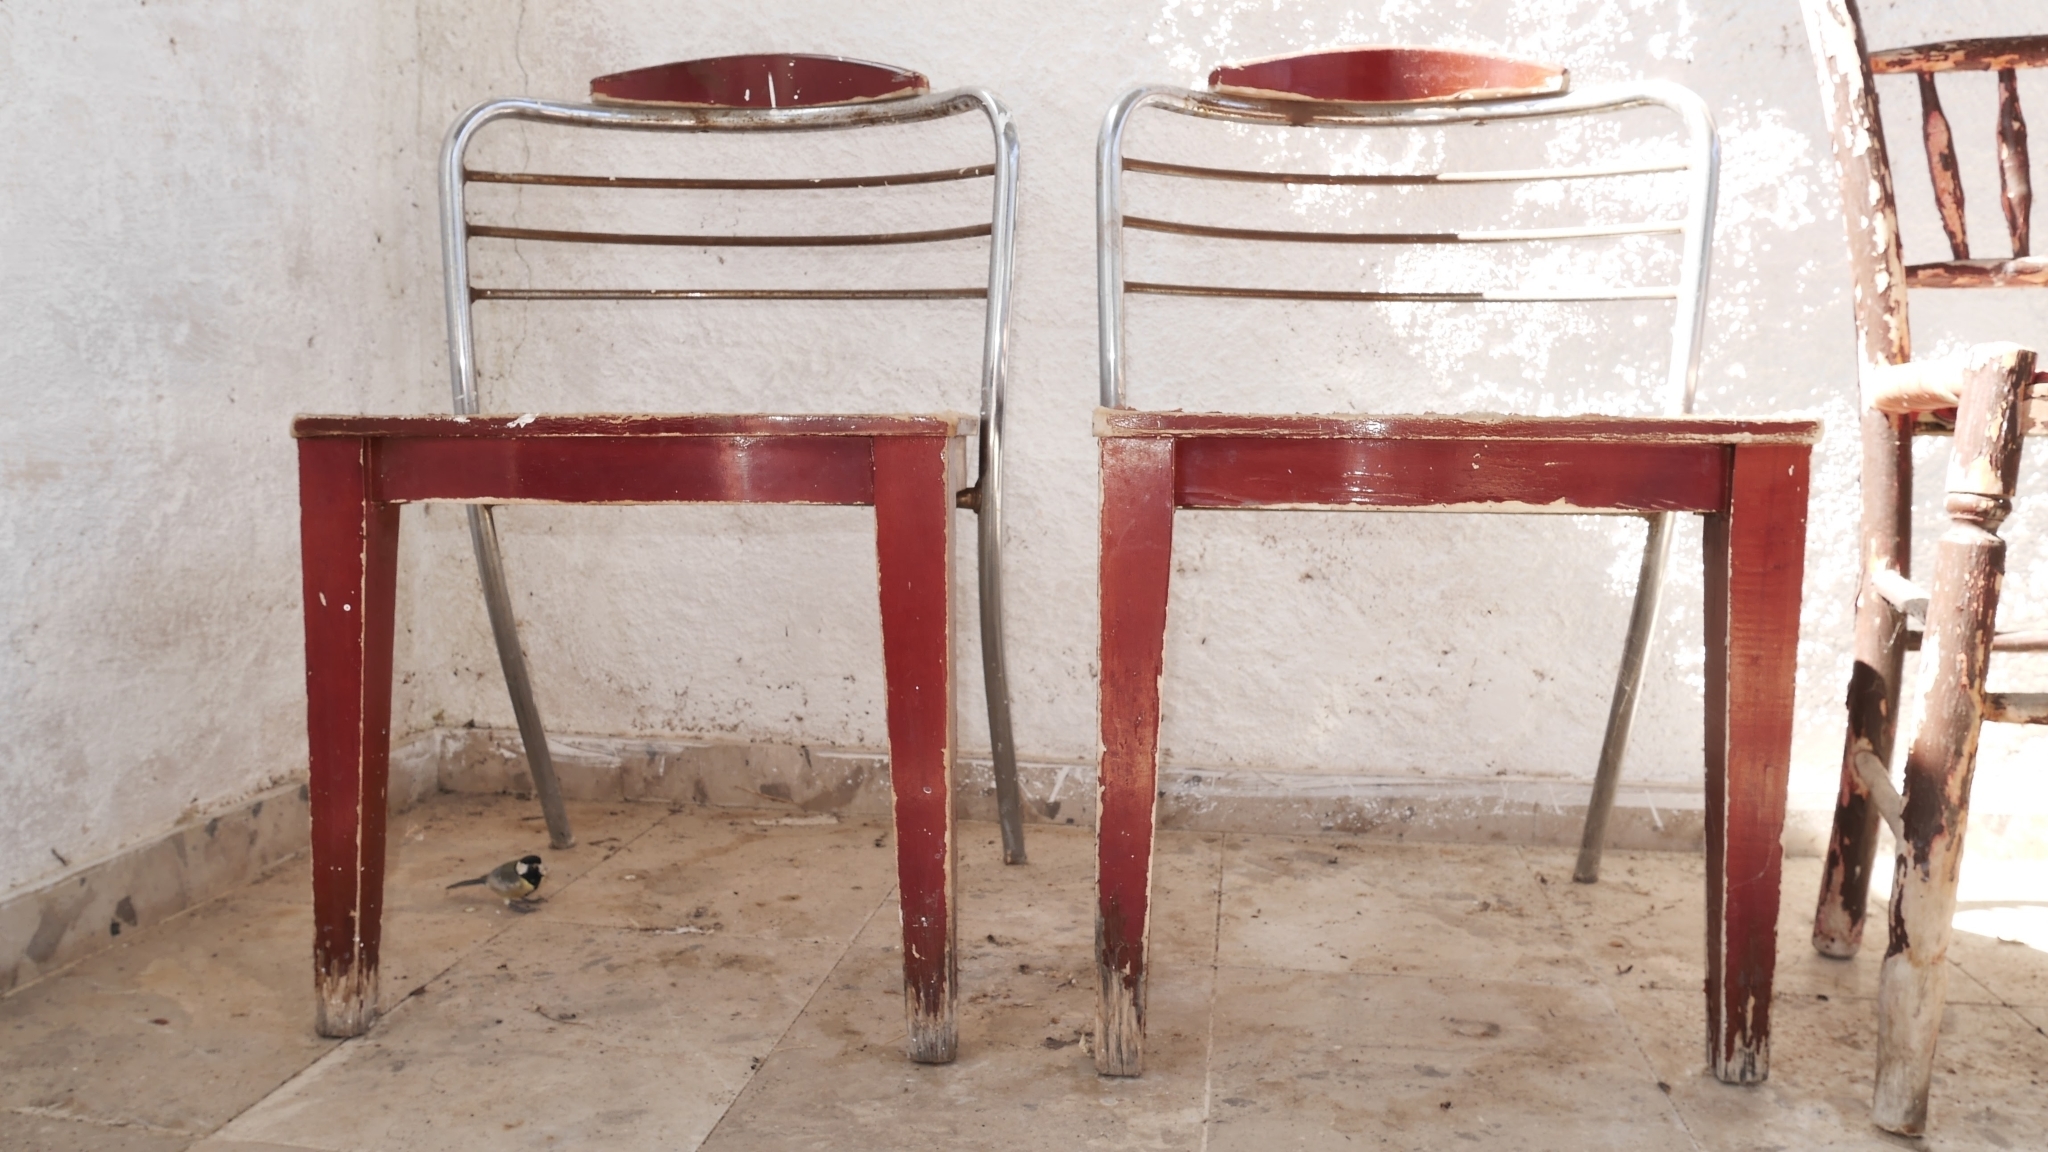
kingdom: Animalia
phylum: Chordata
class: Aves
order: Passeriformes
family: Paridae
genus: Parus
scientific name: Parus major
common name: Great tit
